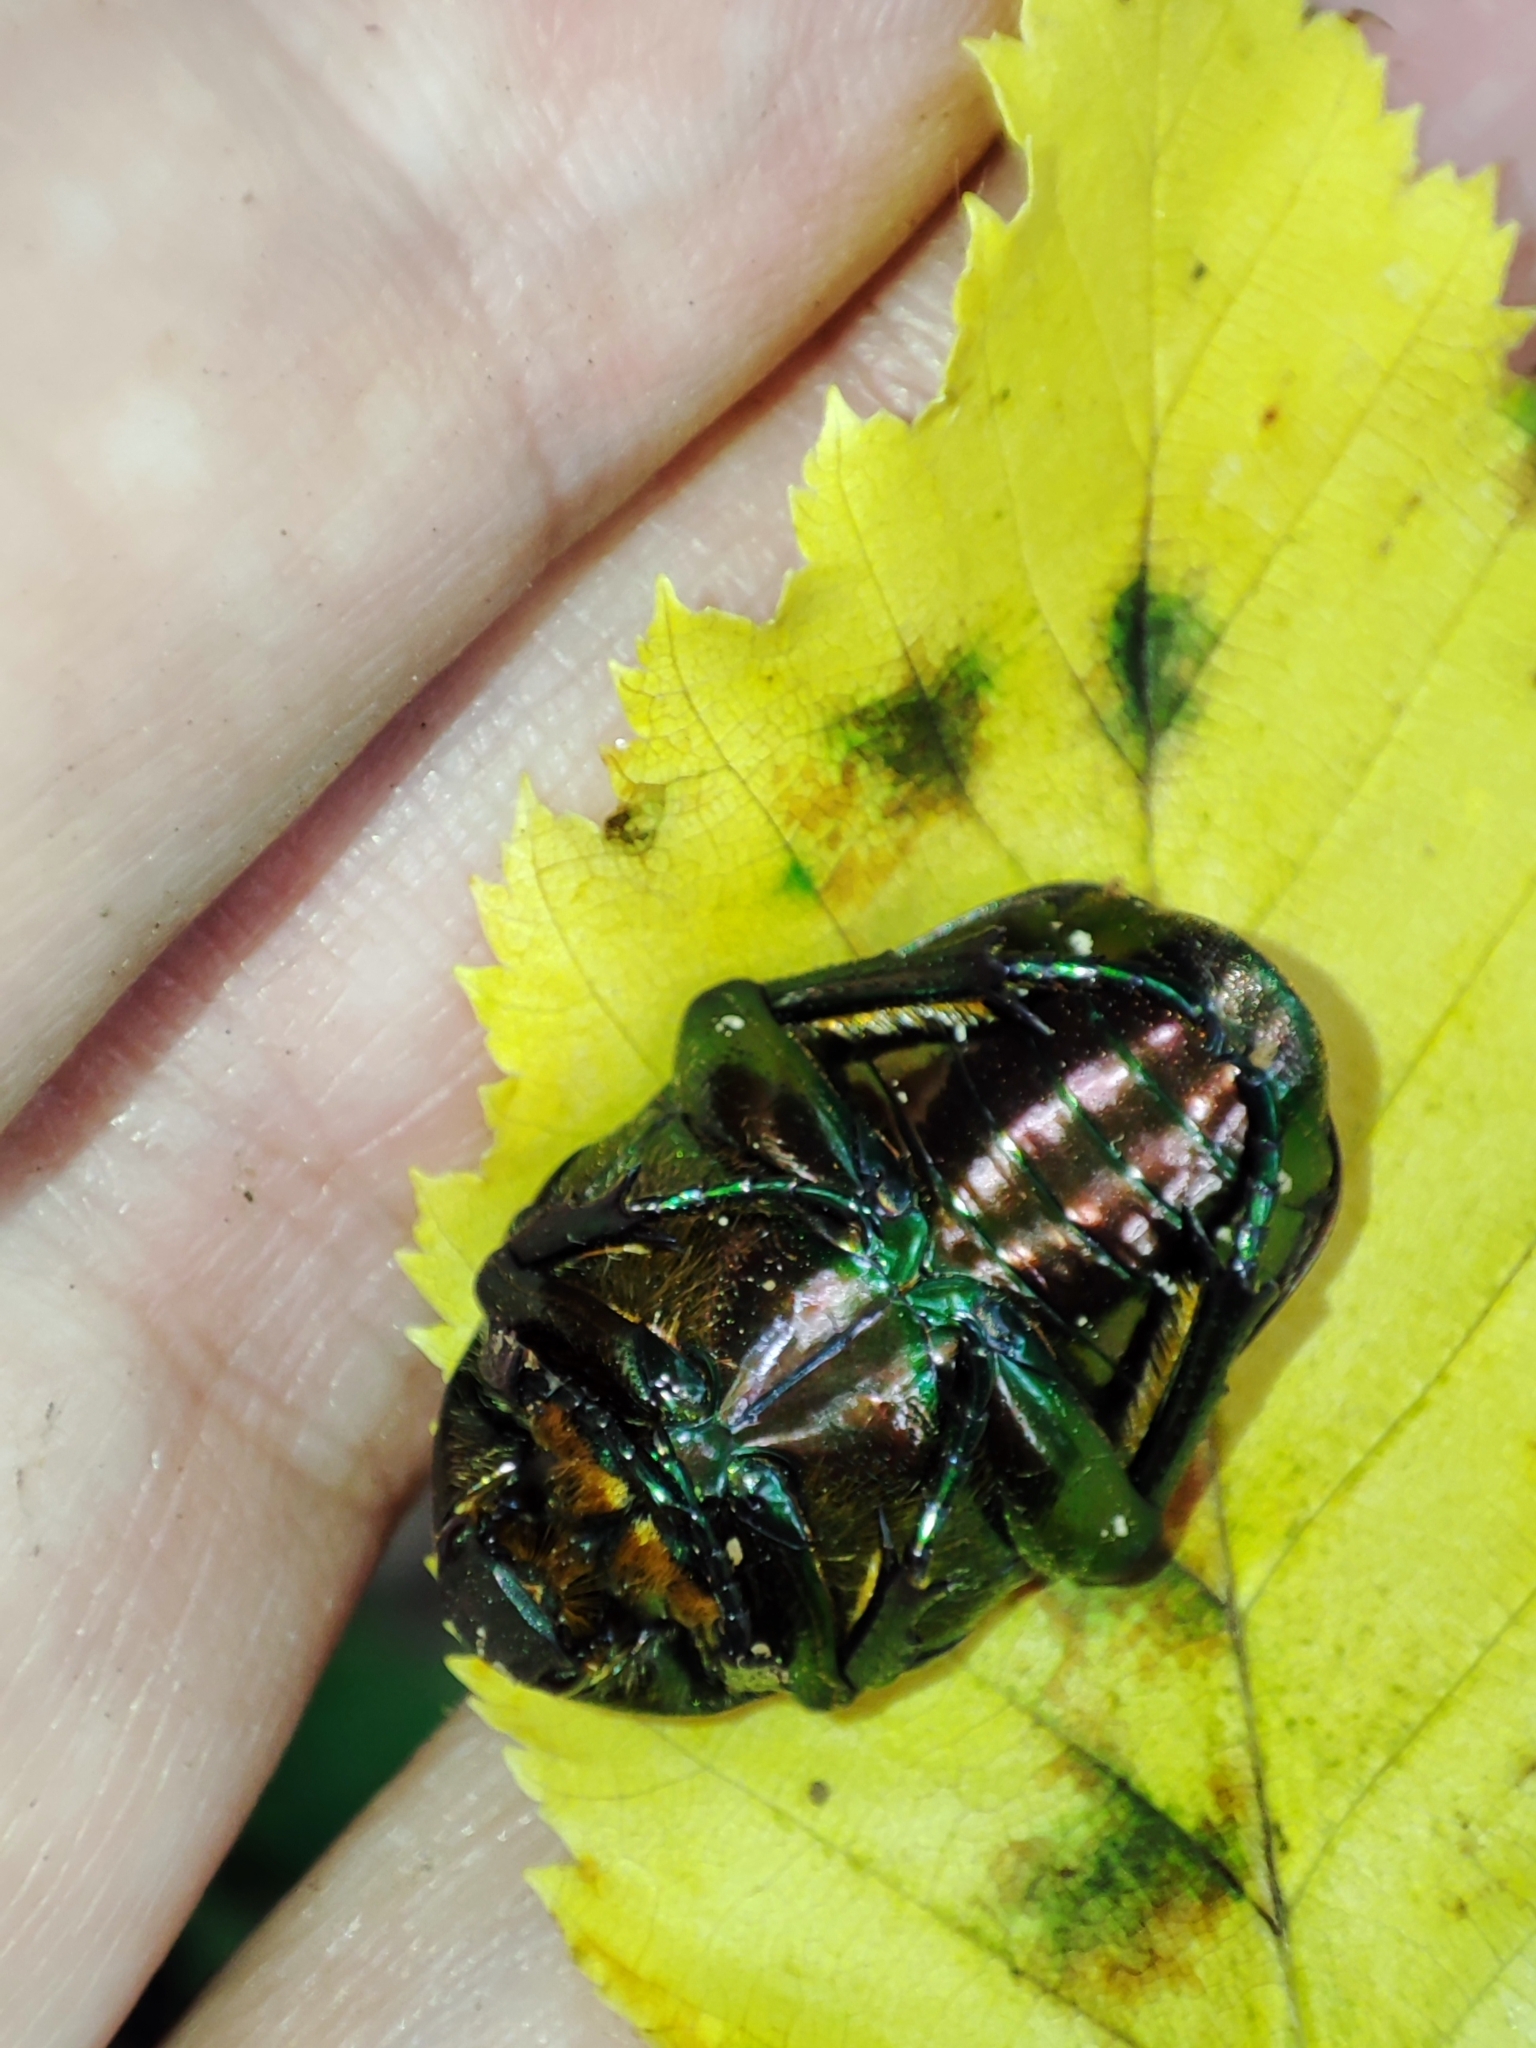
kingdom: Animalia
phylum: Arthropoda
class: Insecta
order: Coleoptera
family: Scarabaeidae
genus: Protaetia
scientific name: Protaetia marmorata
